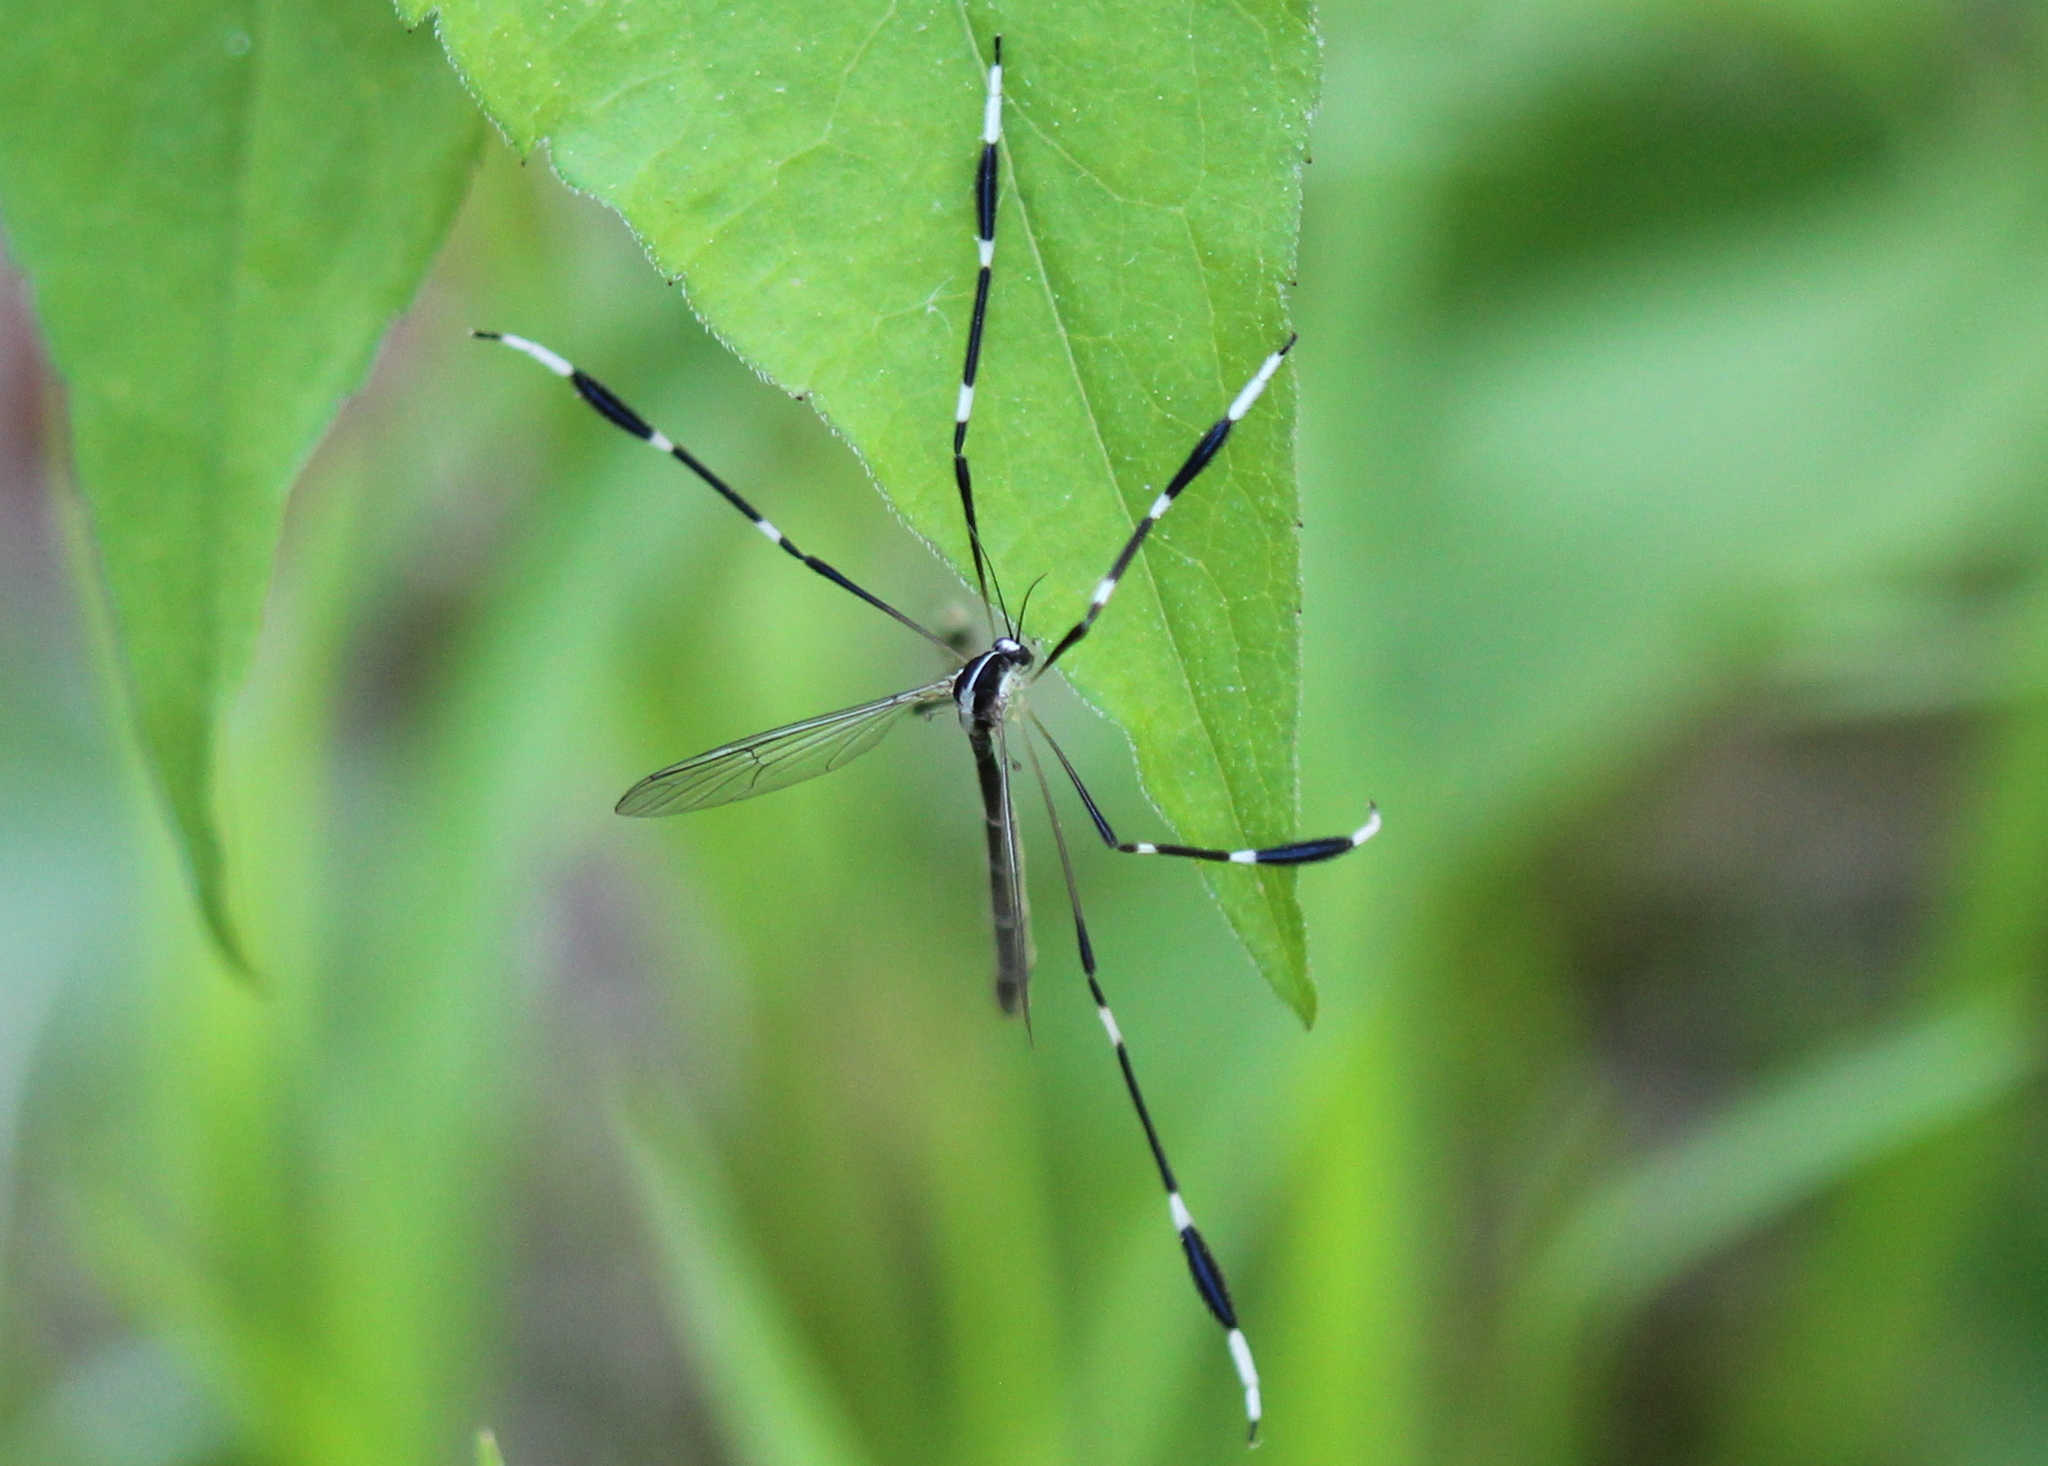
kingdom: Animalia
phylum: Arthropoda
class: Insecta
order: Diptera
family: Ptychopteridae
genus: Bittacomorpha
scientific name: Bittacomorpha clavipes
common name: Eastern phantom crane fly
